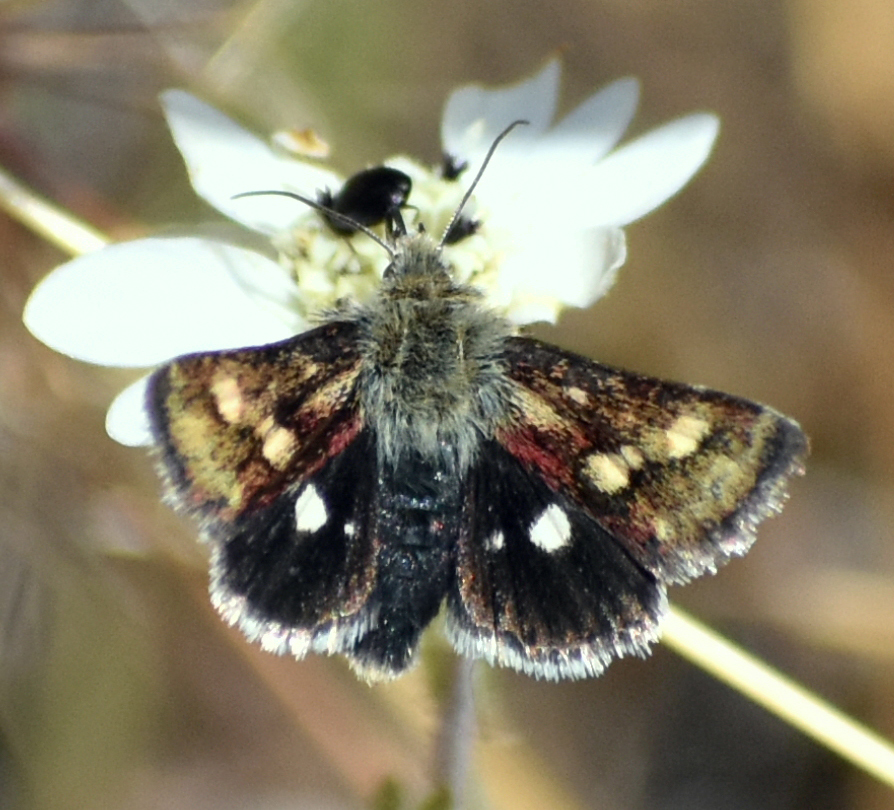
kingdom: Animalia
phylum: Arthropoda
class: Insecta
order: Lepidoptera
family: Noctuidae
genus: Heliothodes
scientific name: Heliothodes diminutiva
